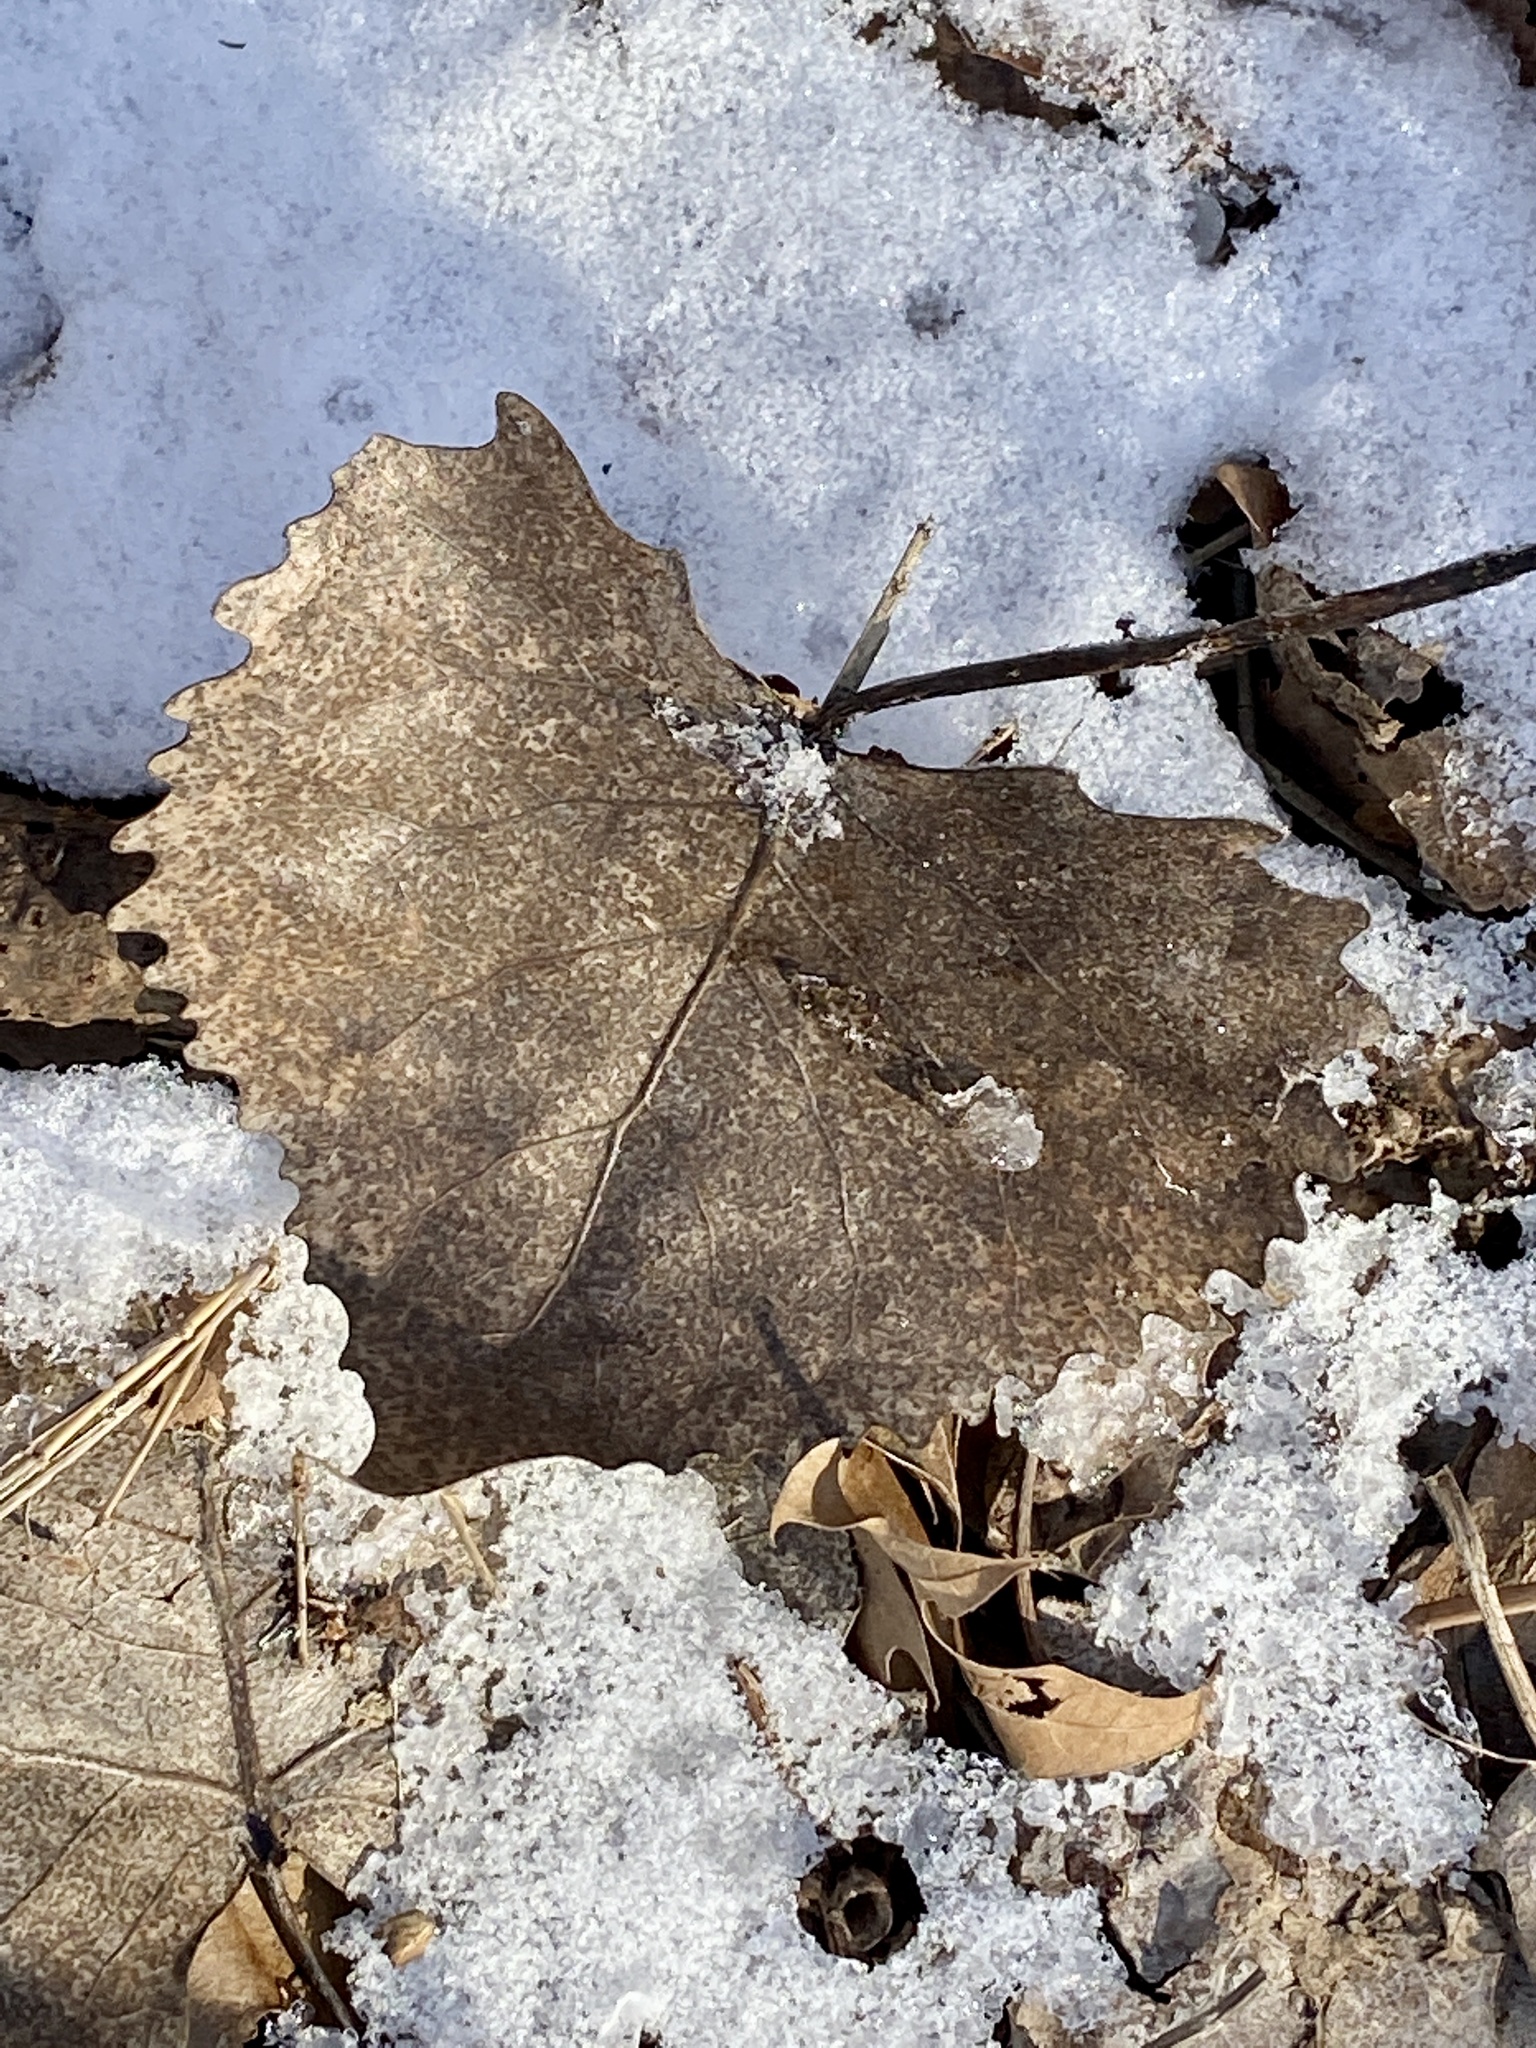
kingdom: Plantae
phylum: Tracheophyta
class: Magnoliopsida
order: Malpighiales
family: Salicaceae
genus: Populus
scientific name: Populus deltoides
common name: Eastern cottonwood
